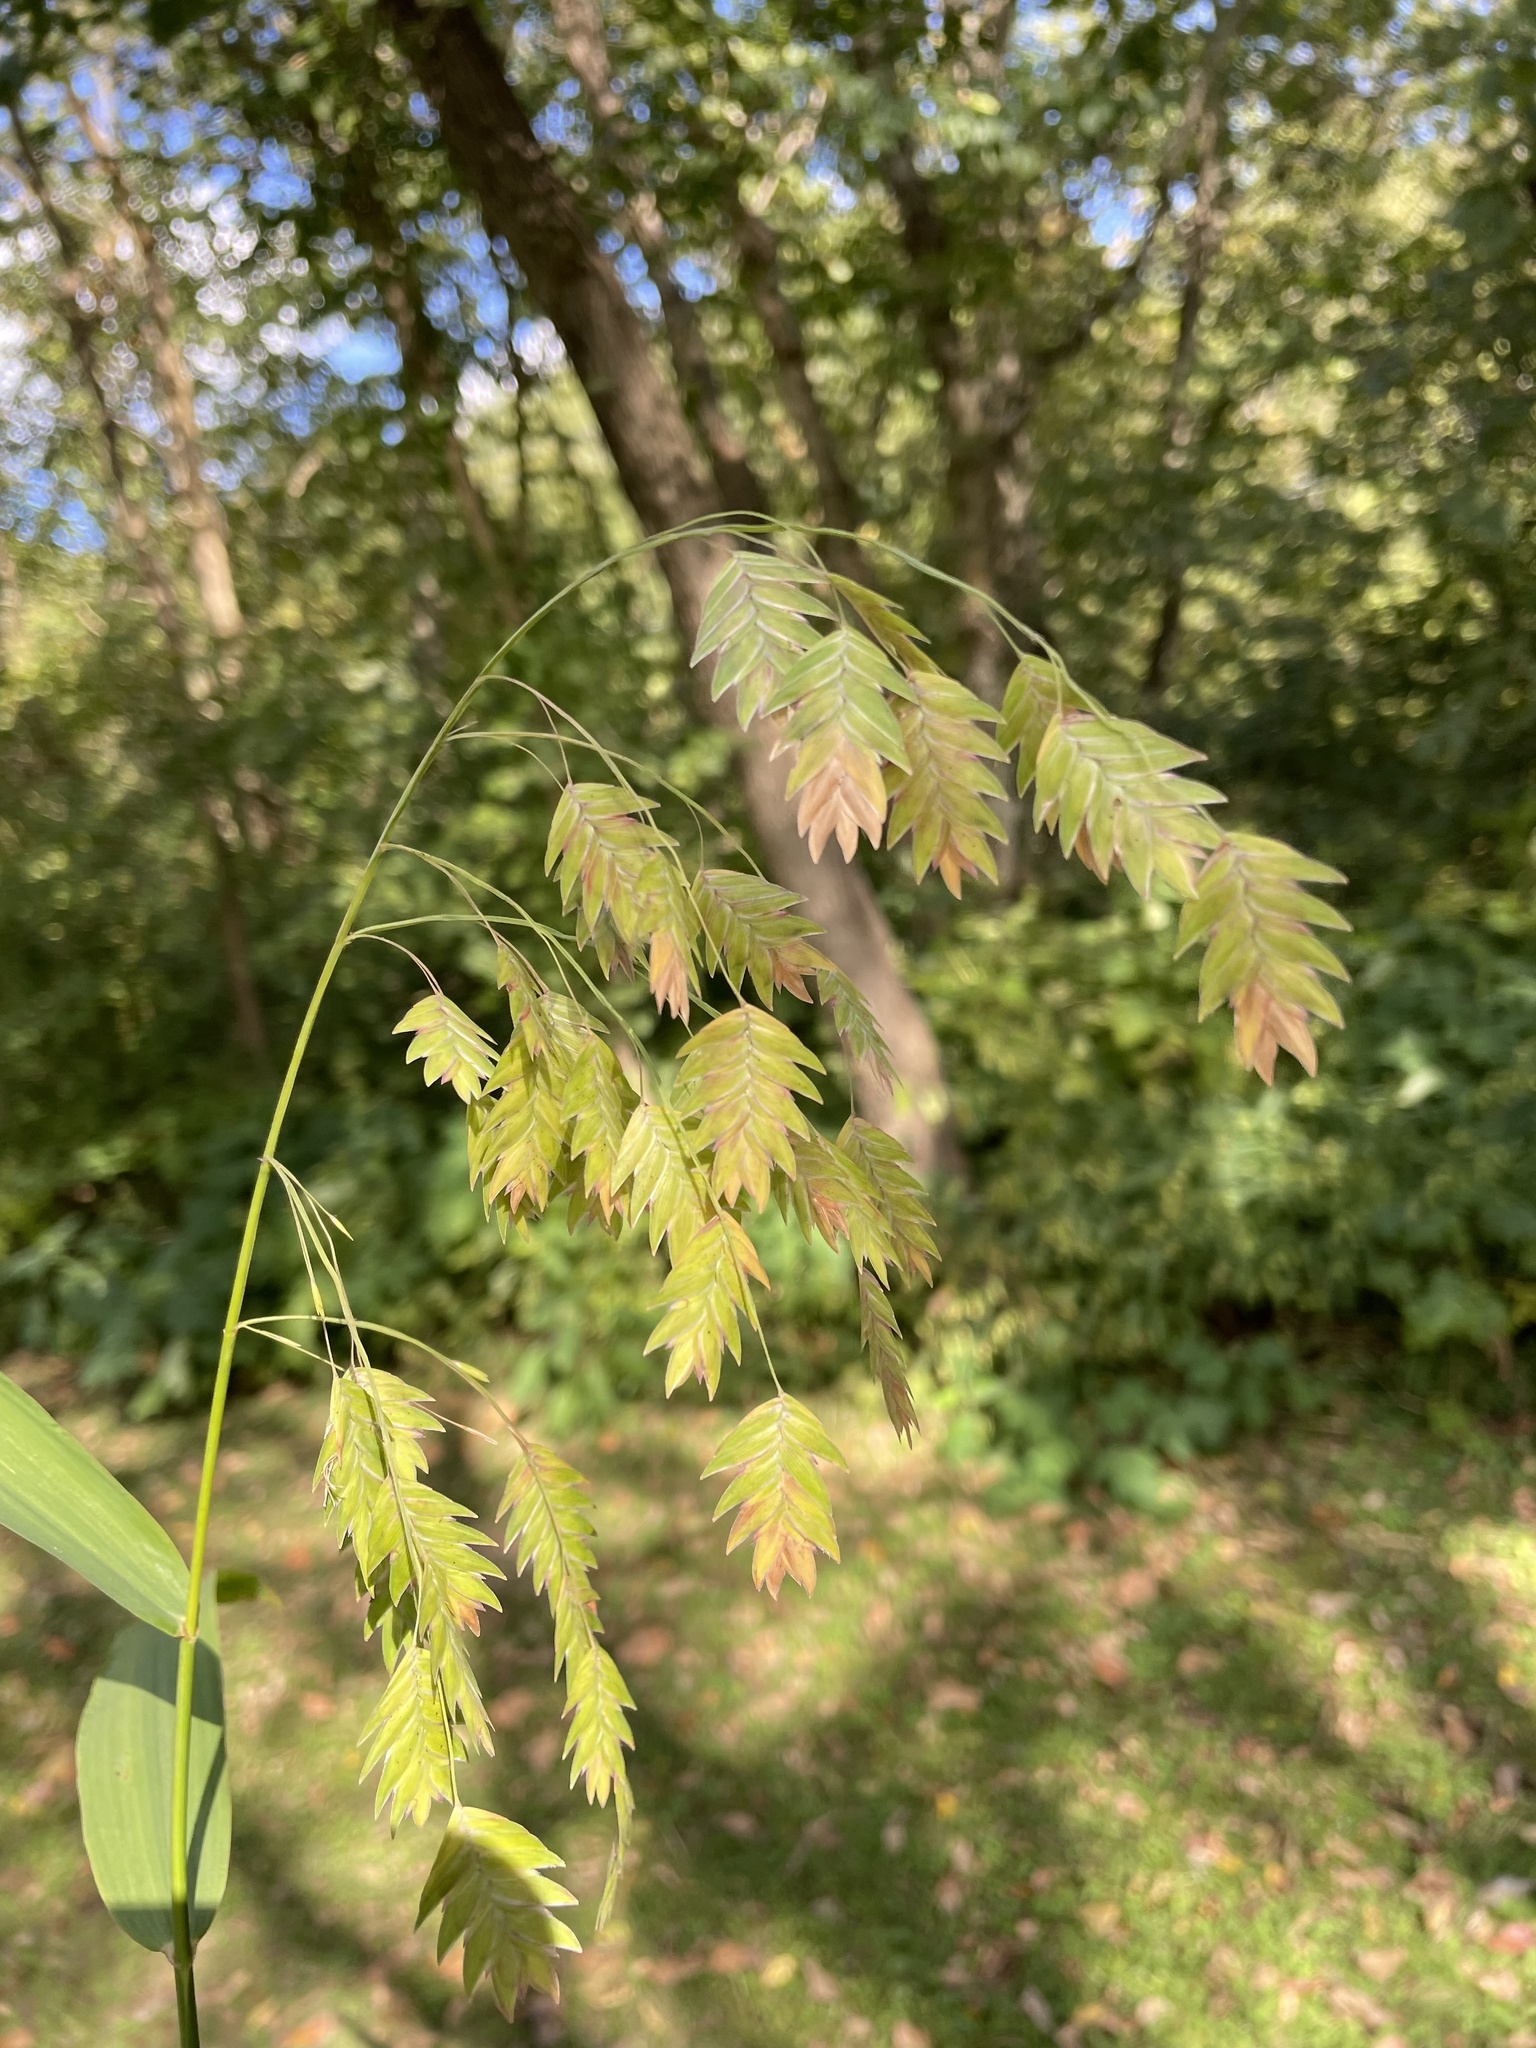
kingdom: Plantae
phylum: Tracheophyta
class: Liliopsida
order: Poales
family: Poaceae
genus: Chasmanthium
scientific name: Chasmanthium latifolium
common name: Broad-leaved chasmanthium
